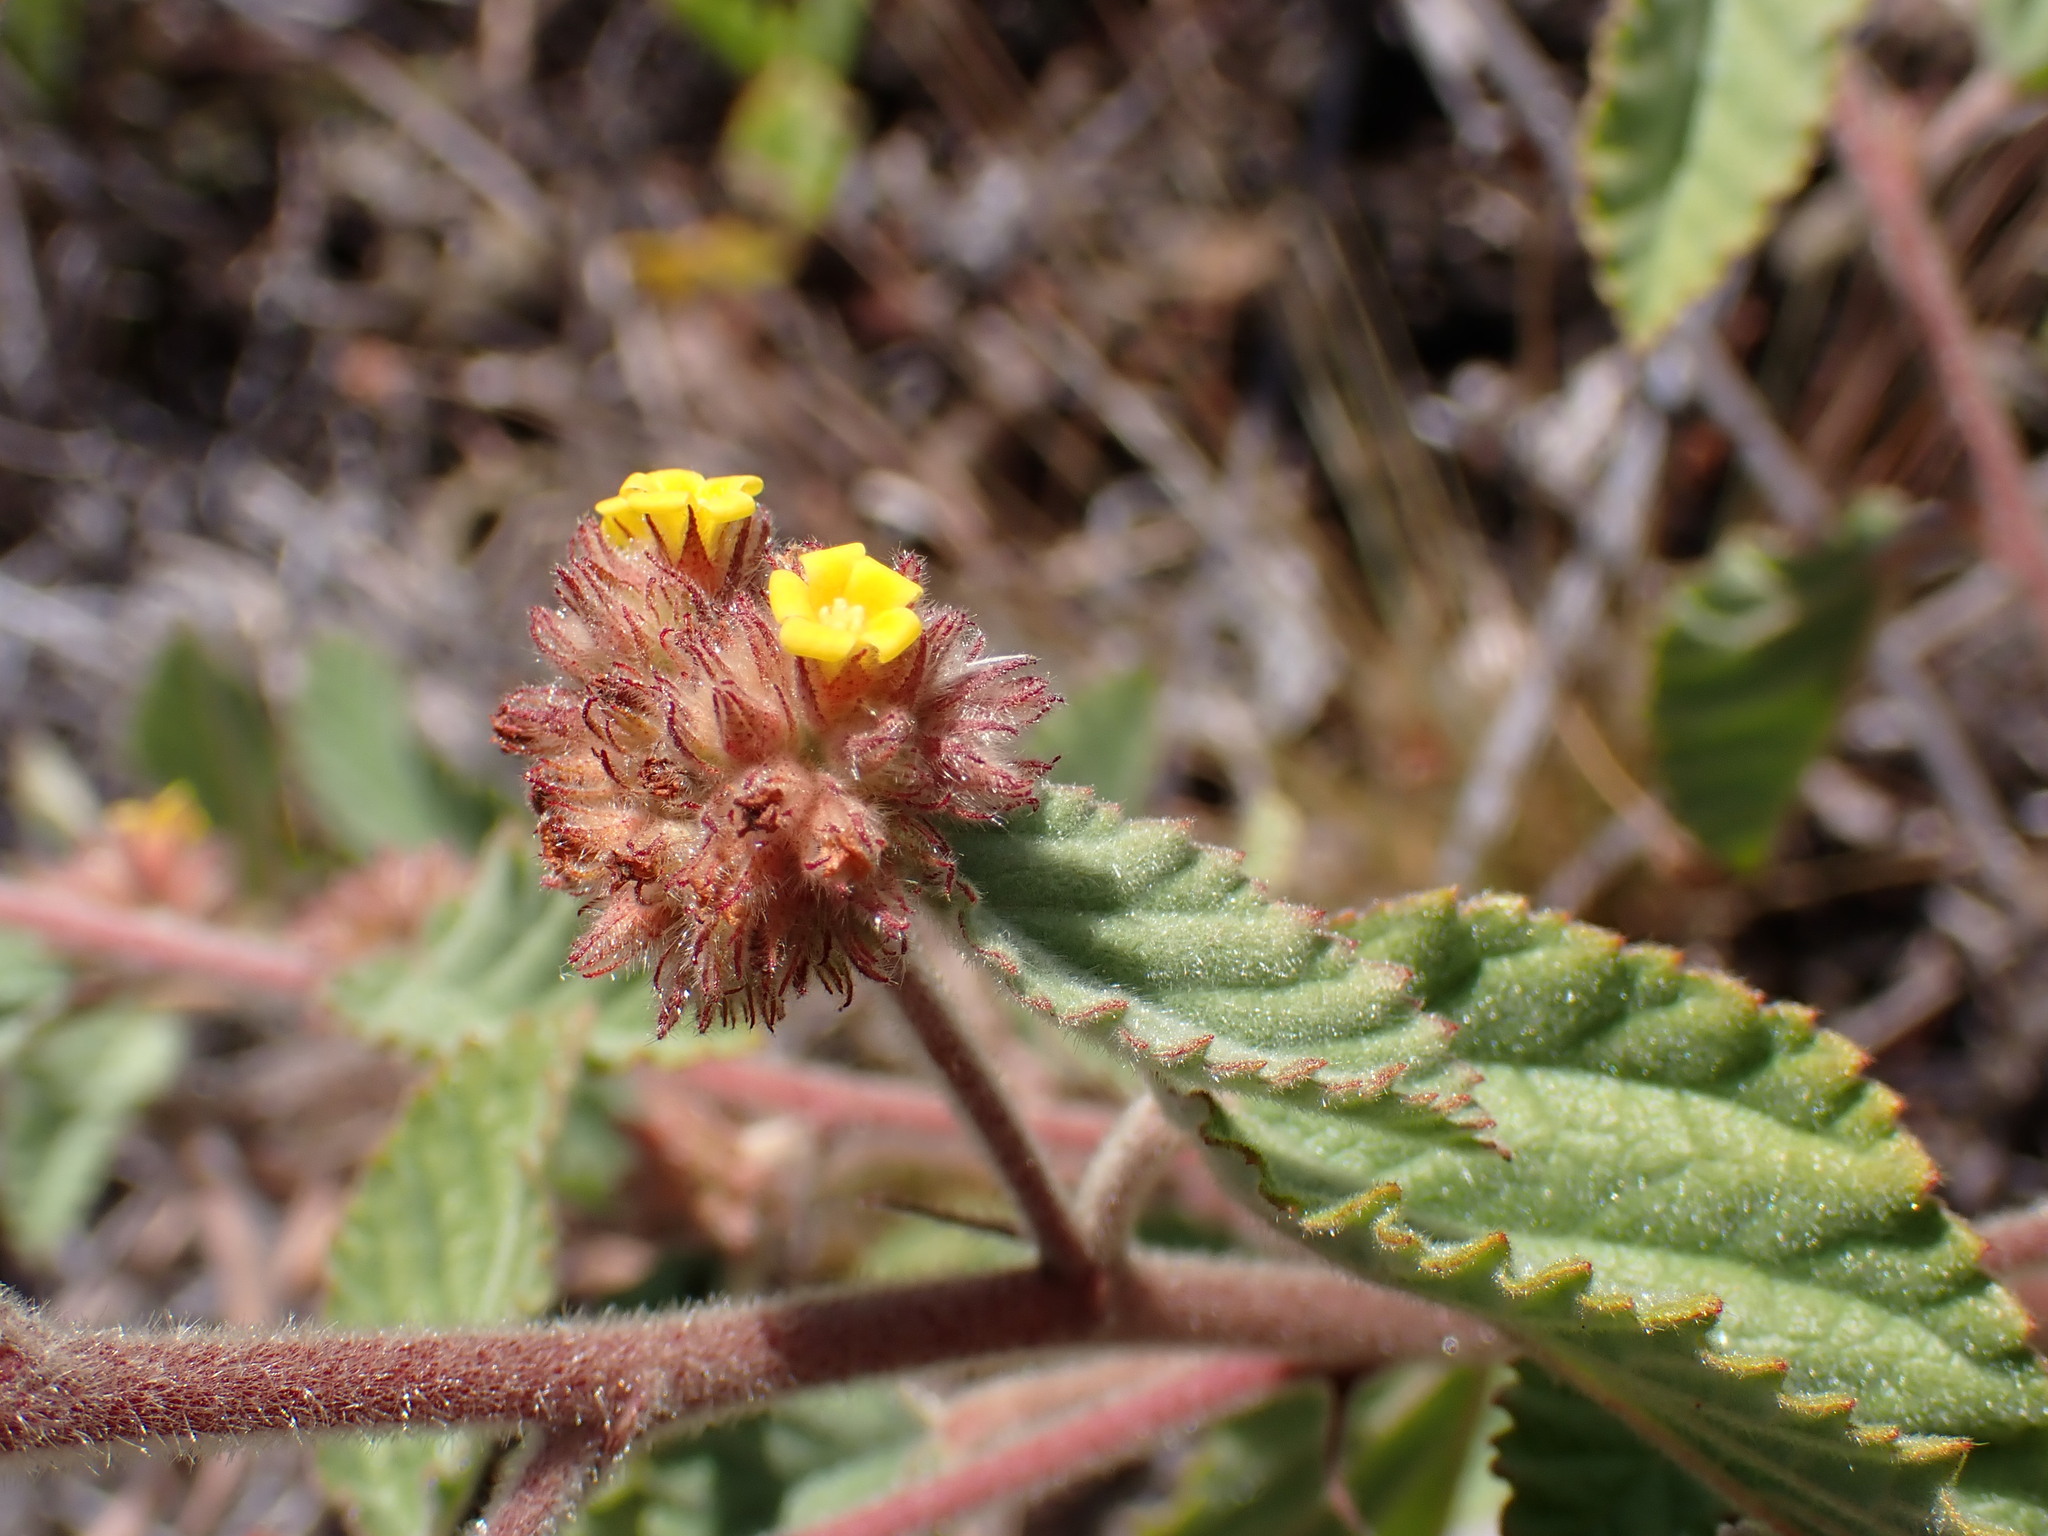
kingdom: Plantae
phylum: Tracheophyta
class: Magnoliopsida
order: Malvales
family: Malvaceae
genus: Waltheria
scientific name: Waltheria indica
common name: Leather-coat
